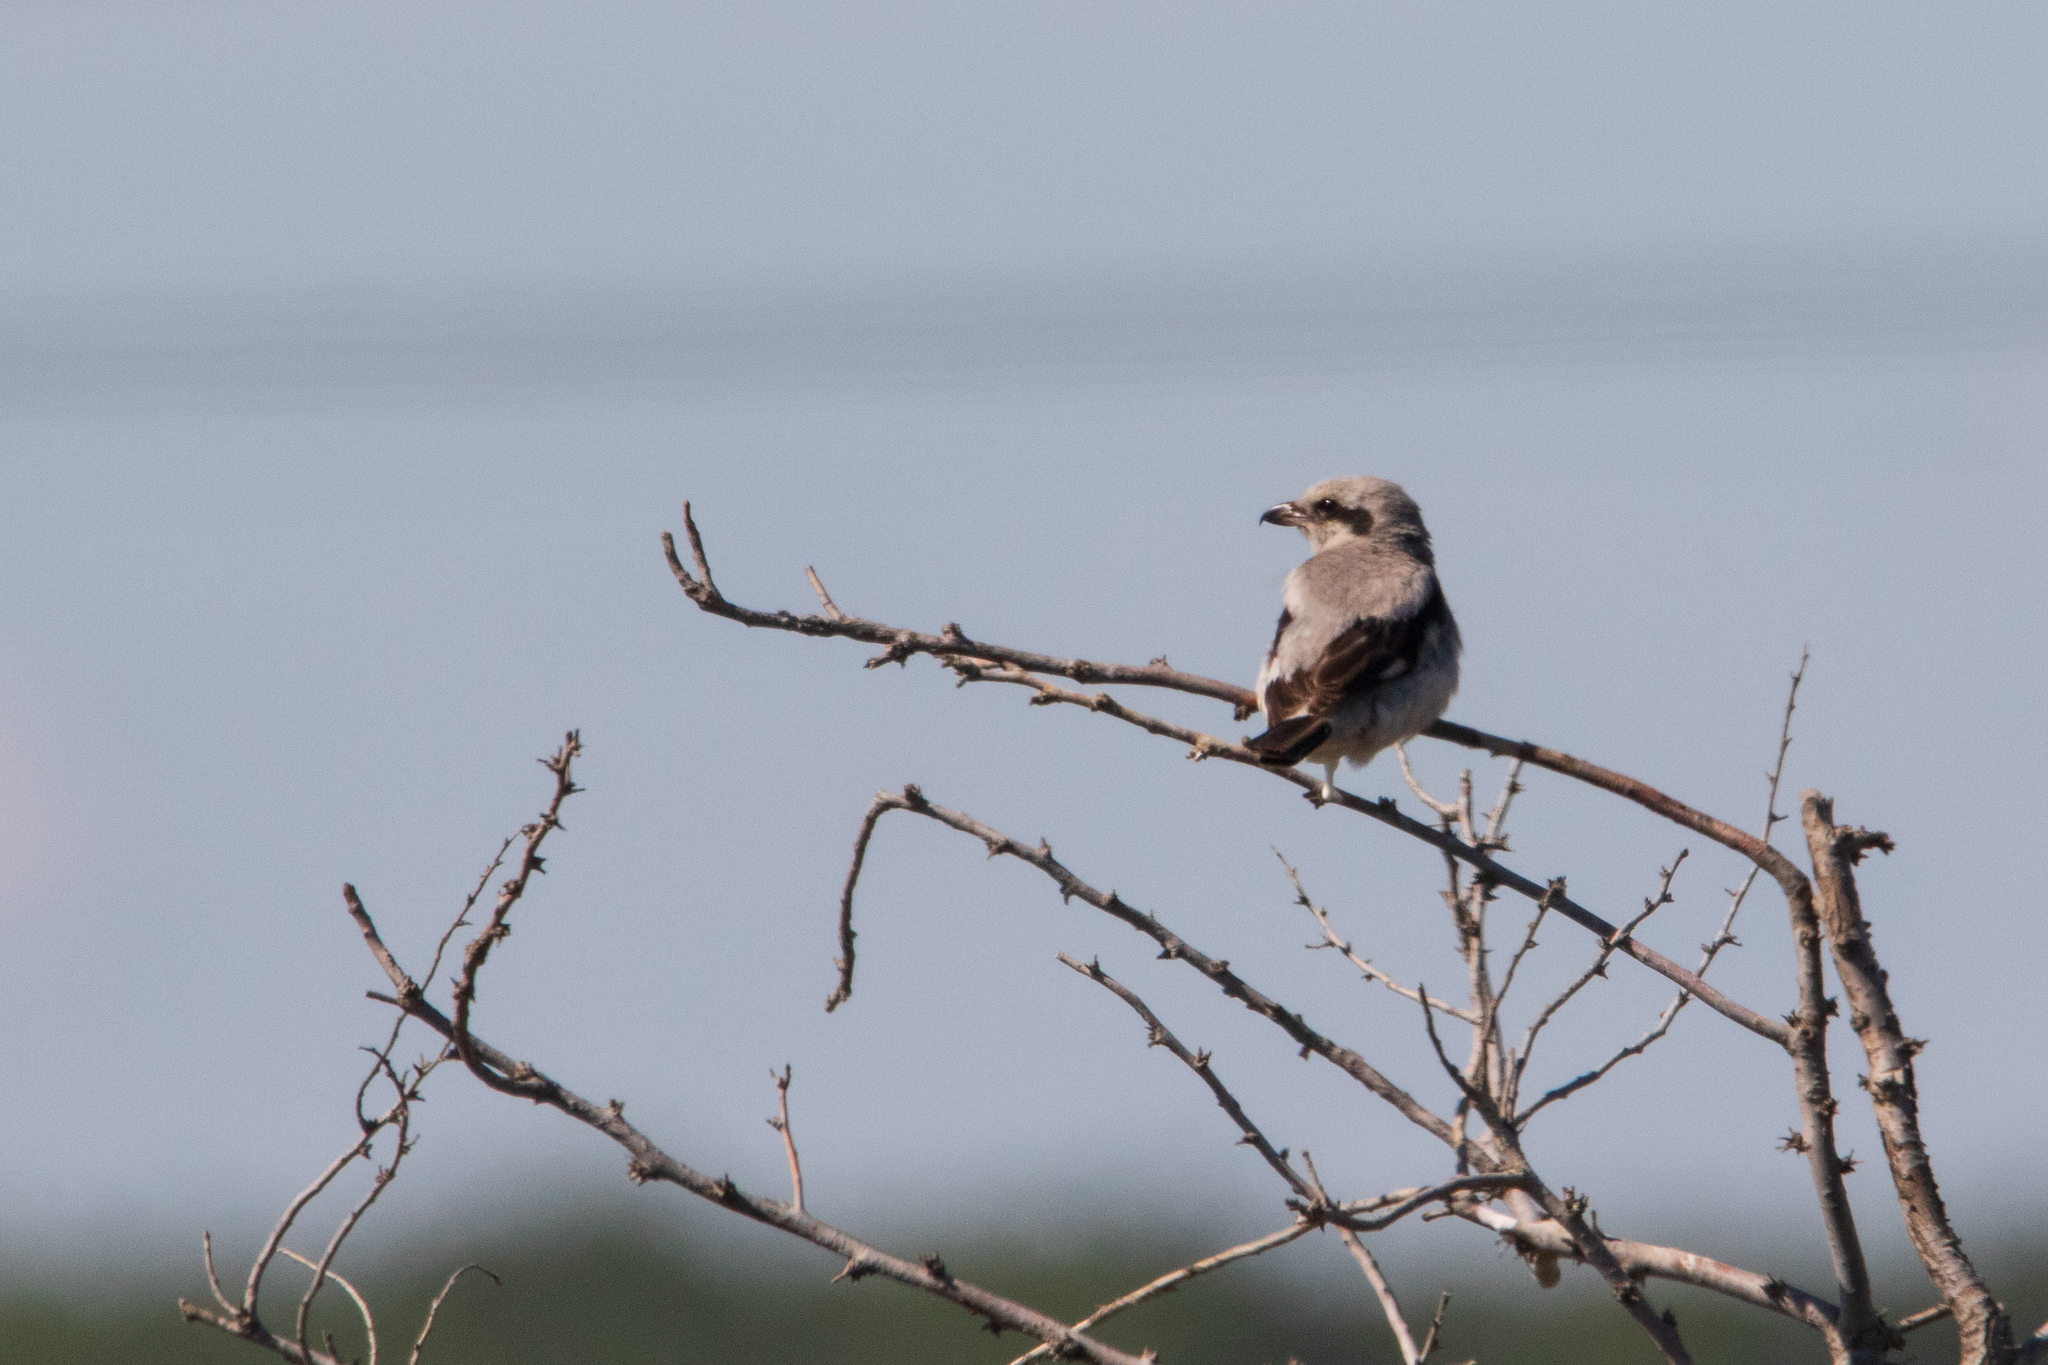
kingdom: Animalia
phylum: Chordata
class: Aves
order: Passeriformes
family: Laniidae
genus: Lanius
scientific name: Lanius excubitor
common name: Great grey shrike
